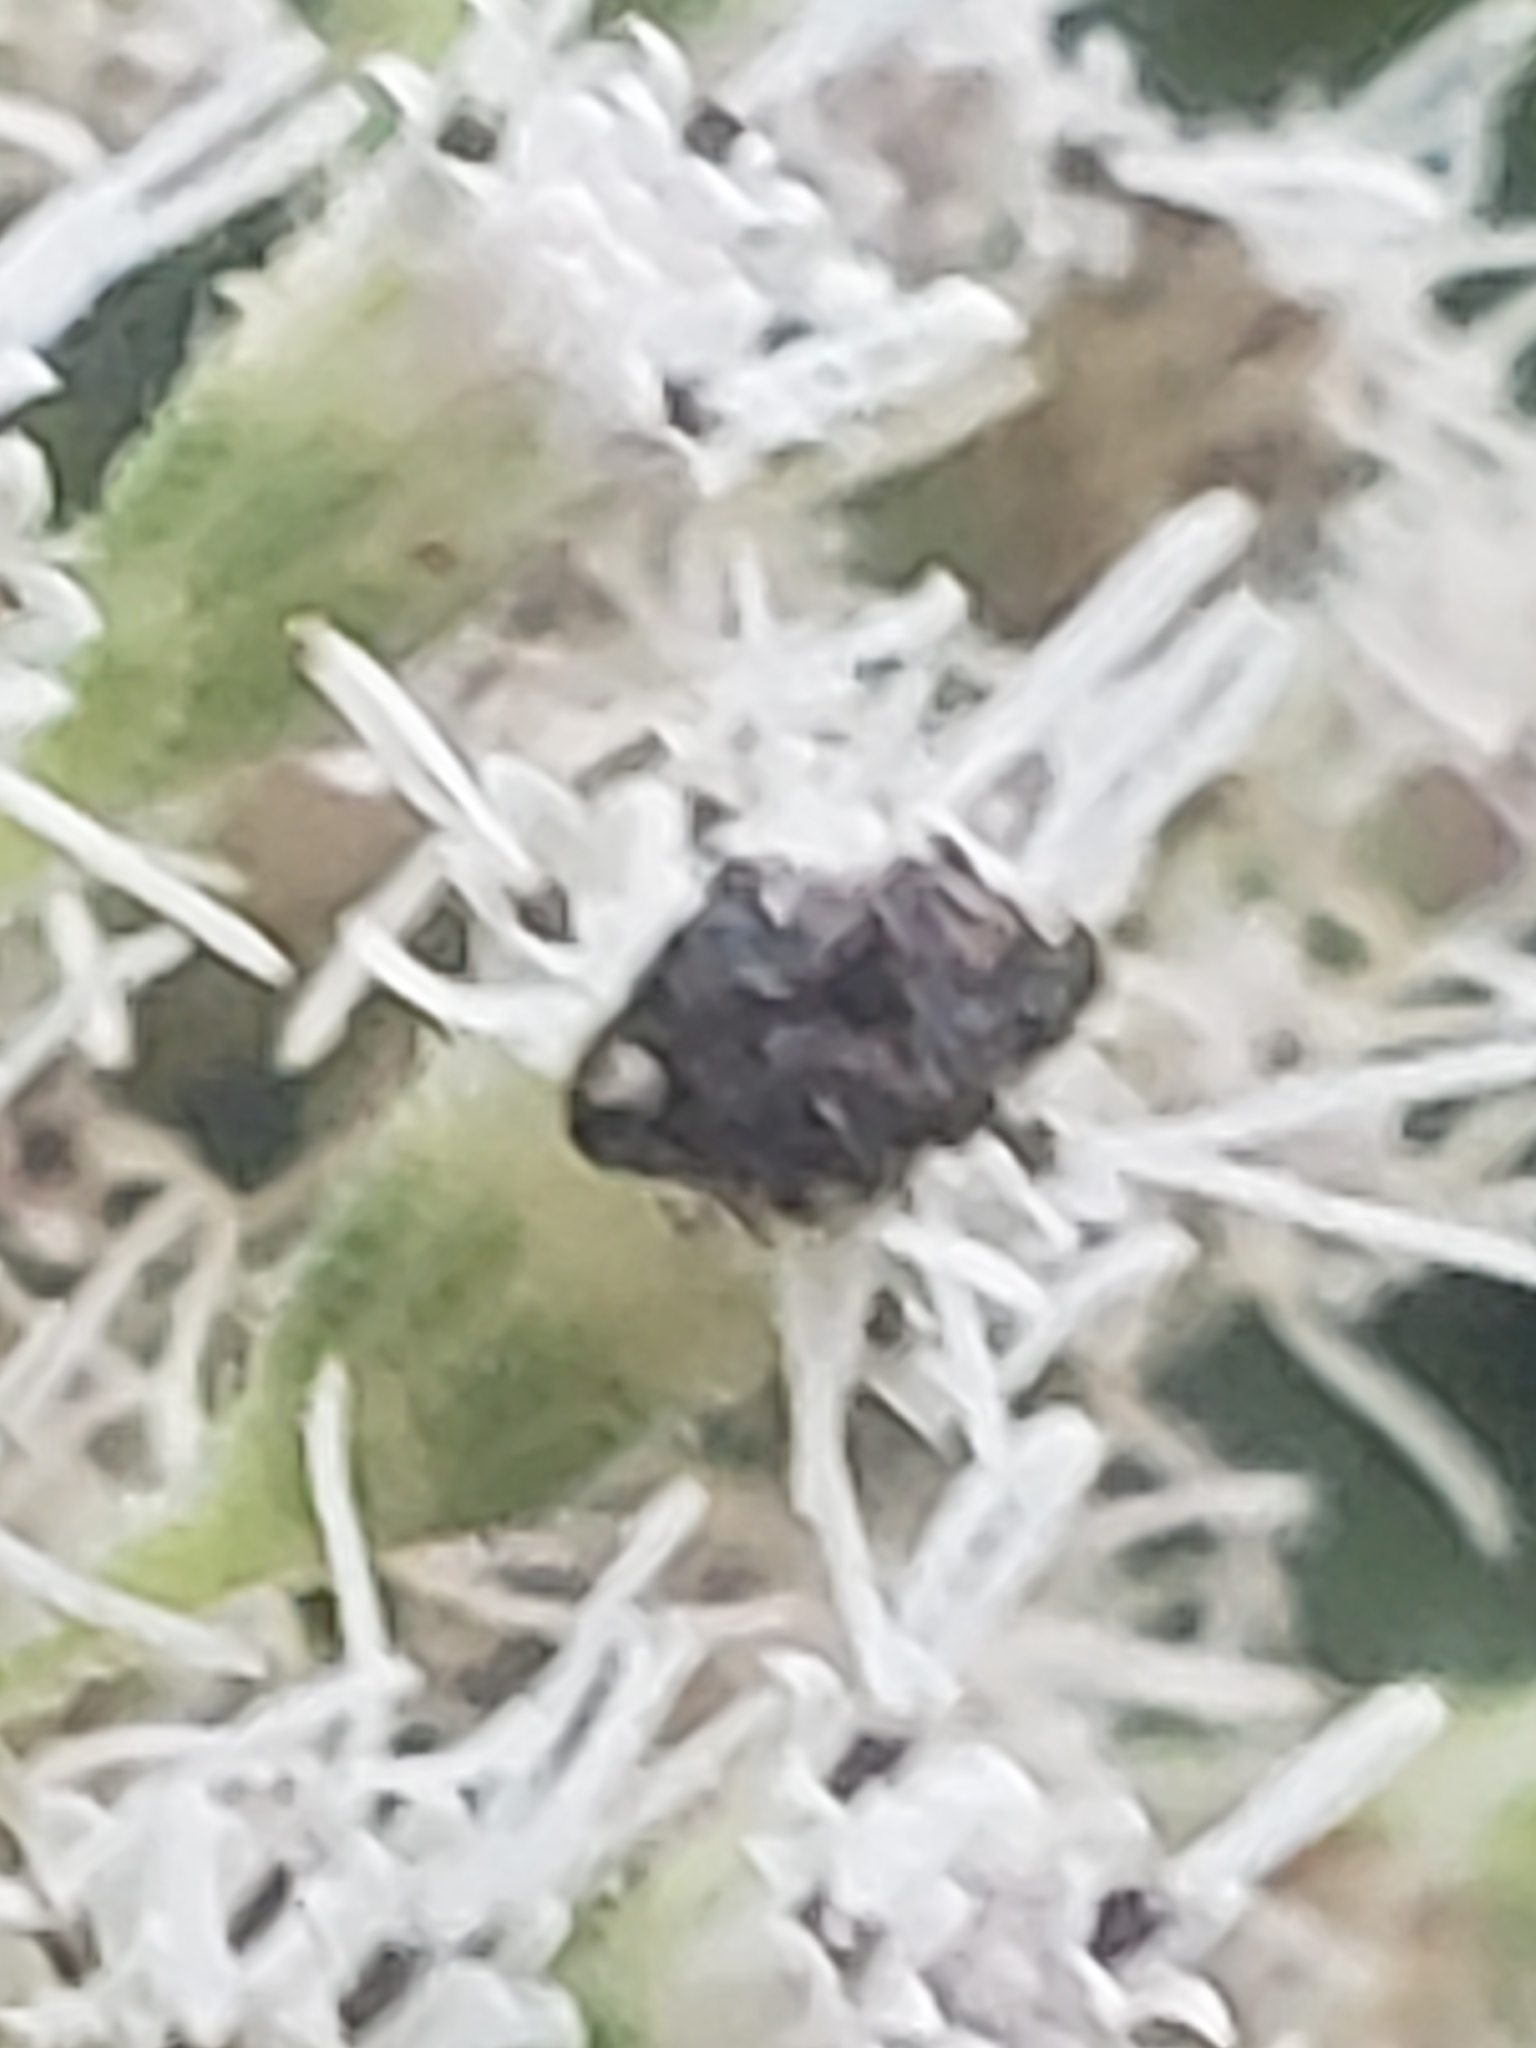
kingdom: Animalia
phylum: Arthropoda
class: Insecta
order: Coleoptera
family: Chrysomelidae
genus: Gibbobruchus
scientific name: Gibbobruchus mimus
